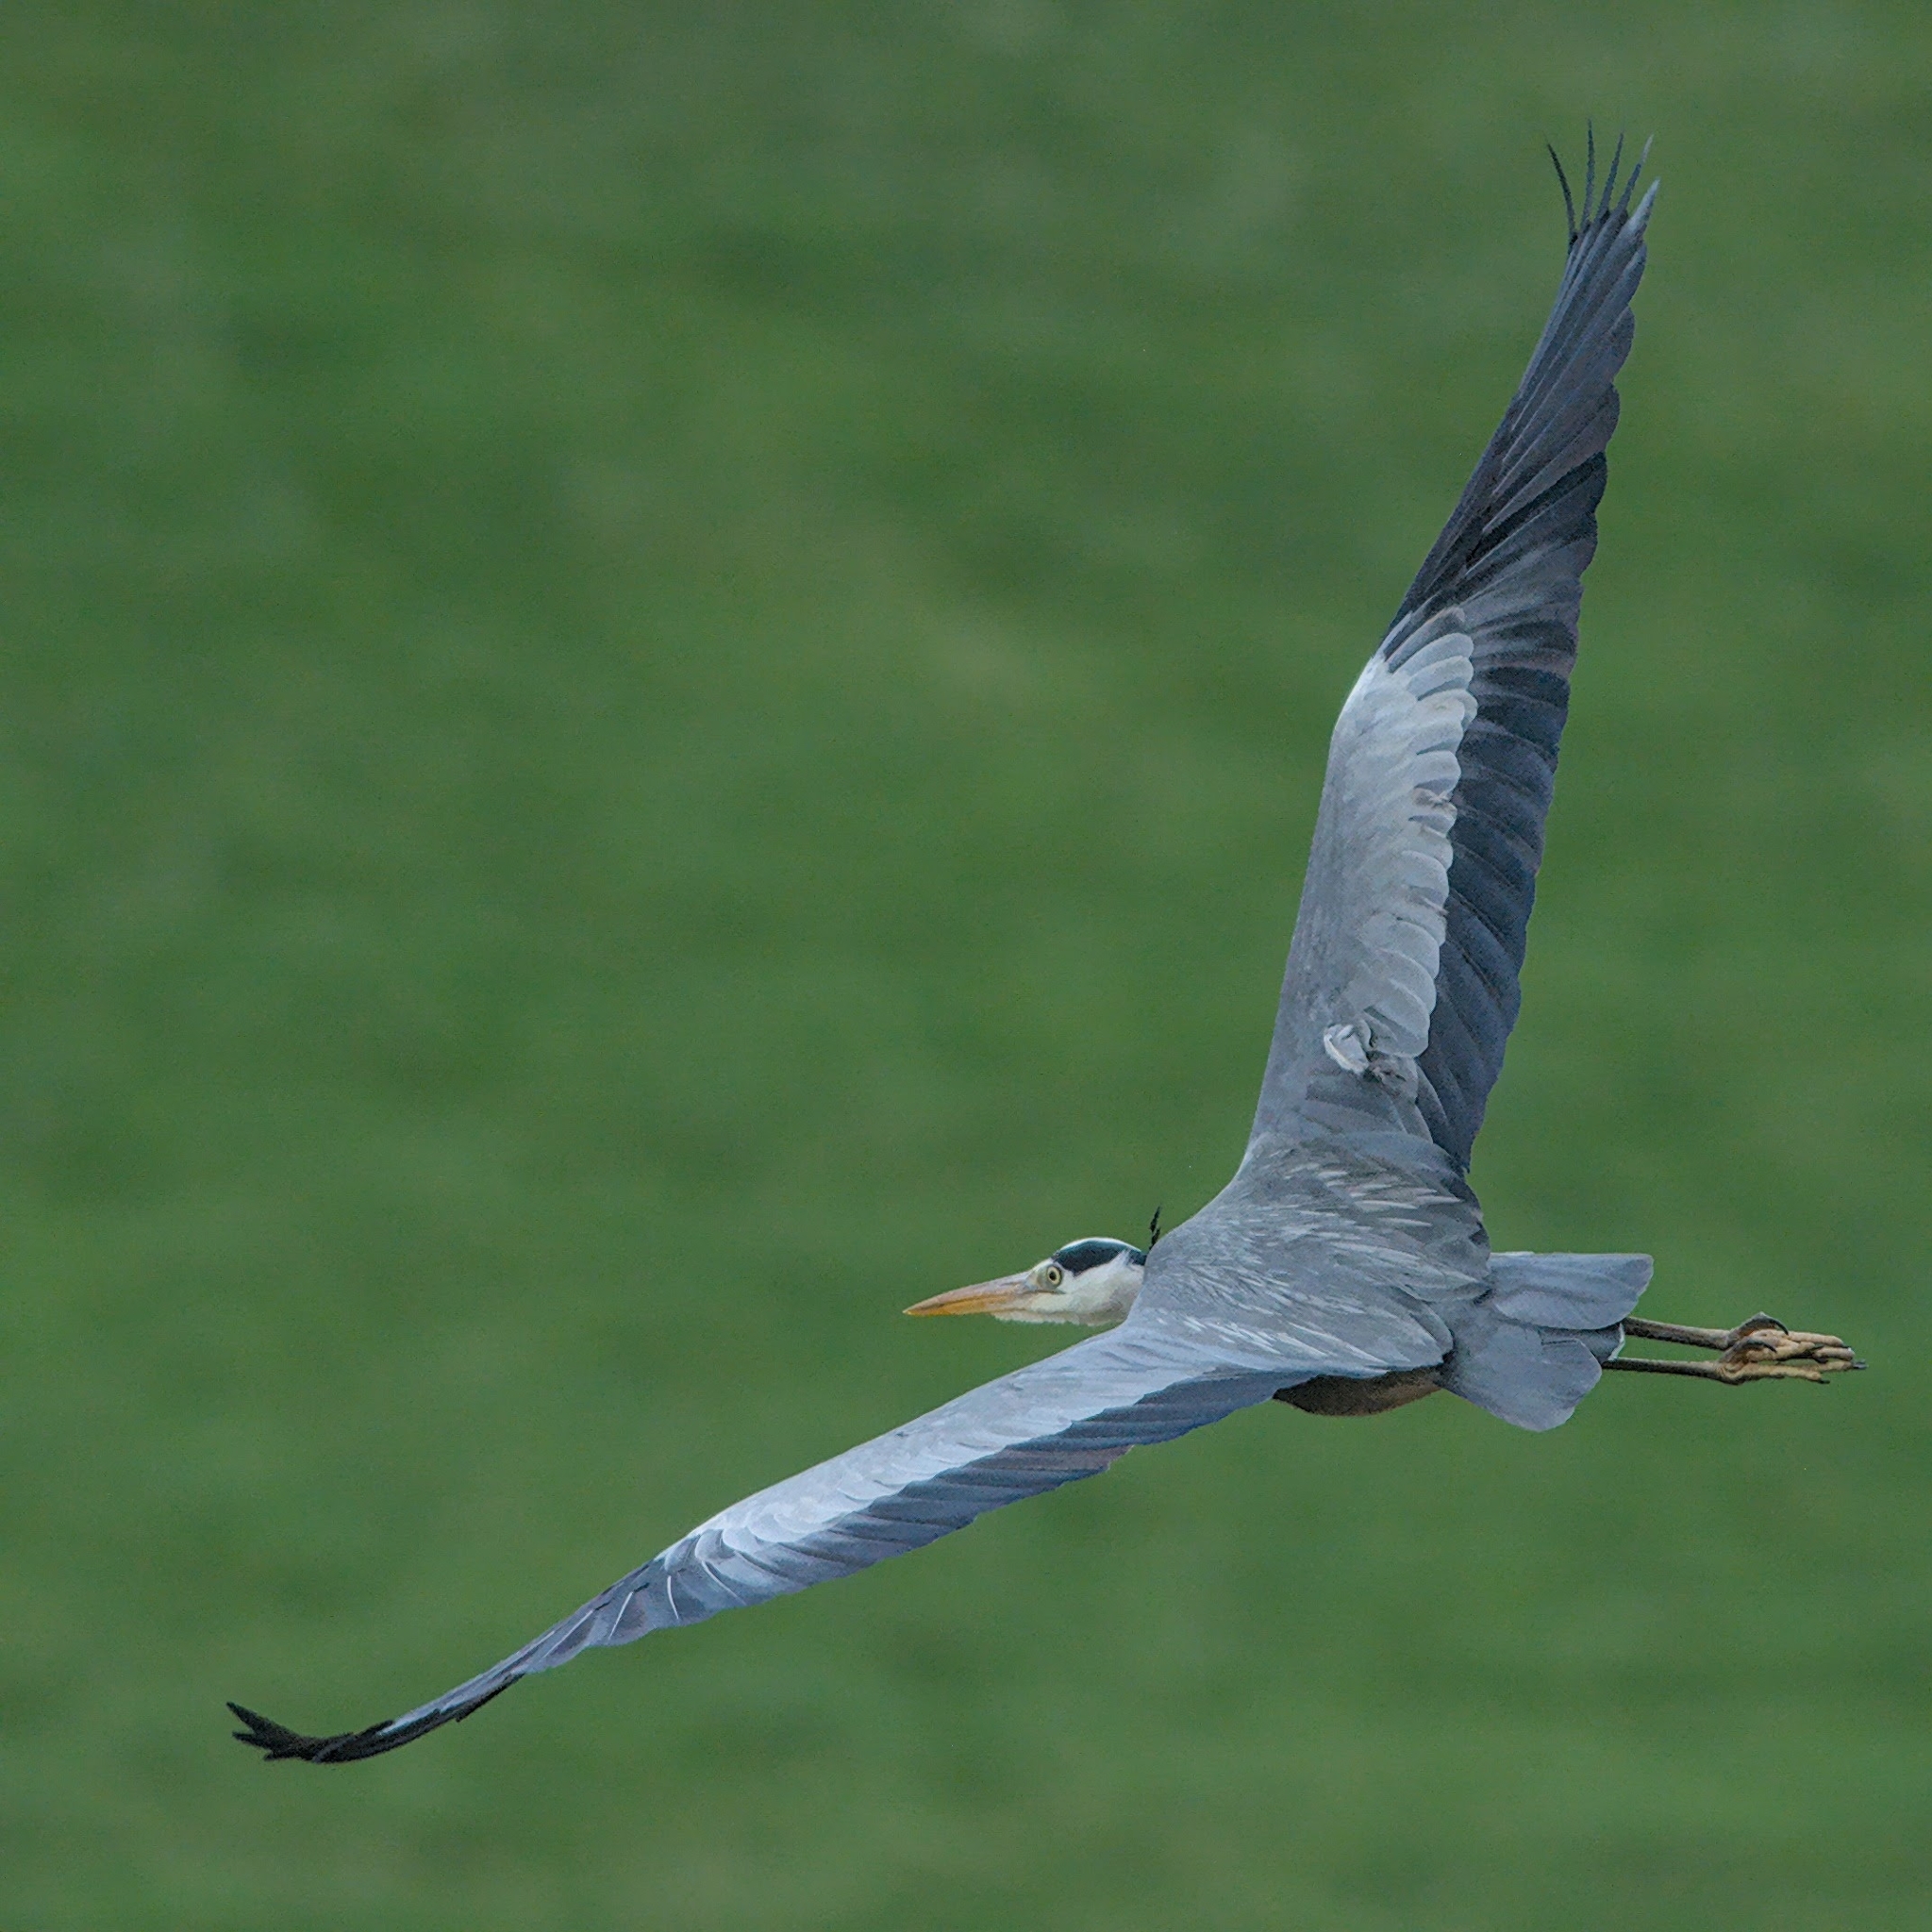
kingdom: Animalia
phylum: Chordata
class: Aves
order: Pelecaniformes
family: Ardeidae
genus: Ardea
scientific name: Ardea cinerea
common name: Grey heron
